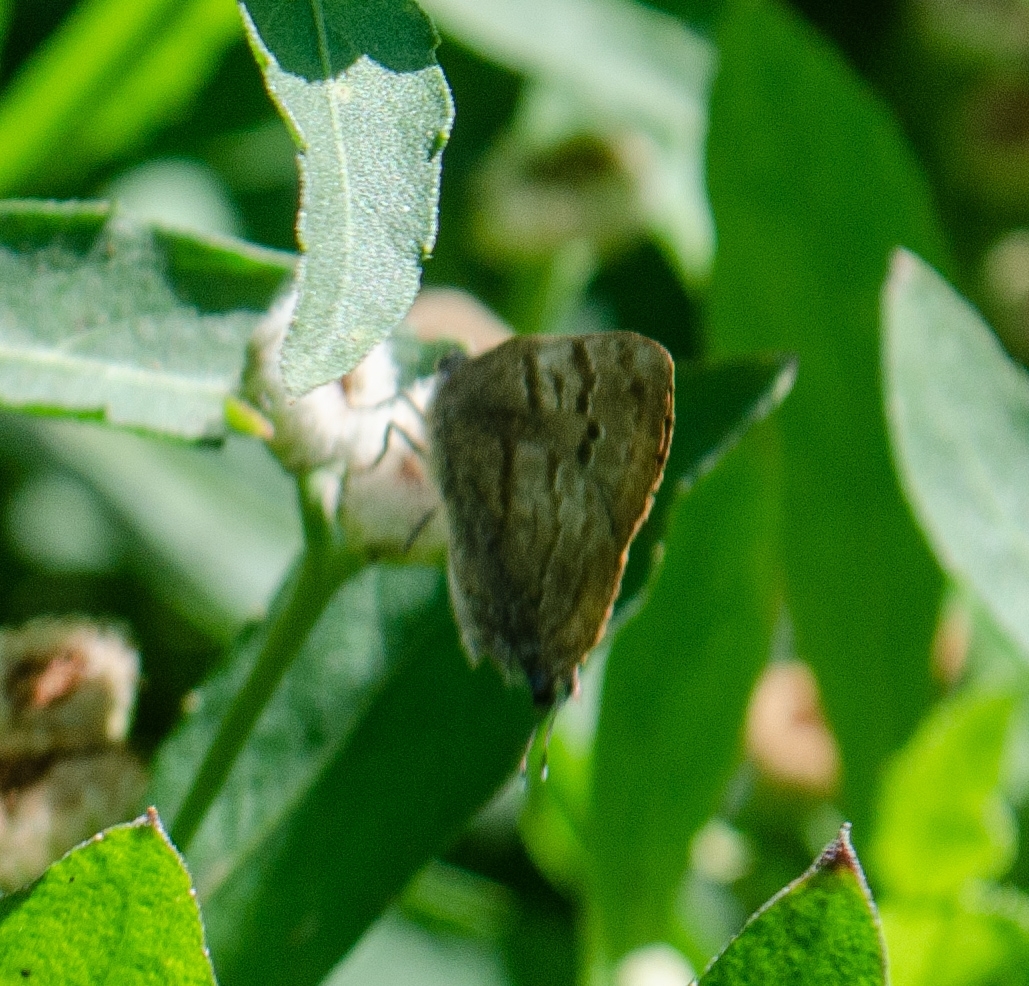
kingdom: Animalia
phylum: Arthropoda
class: Insecta
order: Lepidoptera
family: Lycaenidae
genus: Rekoa
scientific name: Rekoa palegon
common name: Gold-bordered hairstreak
